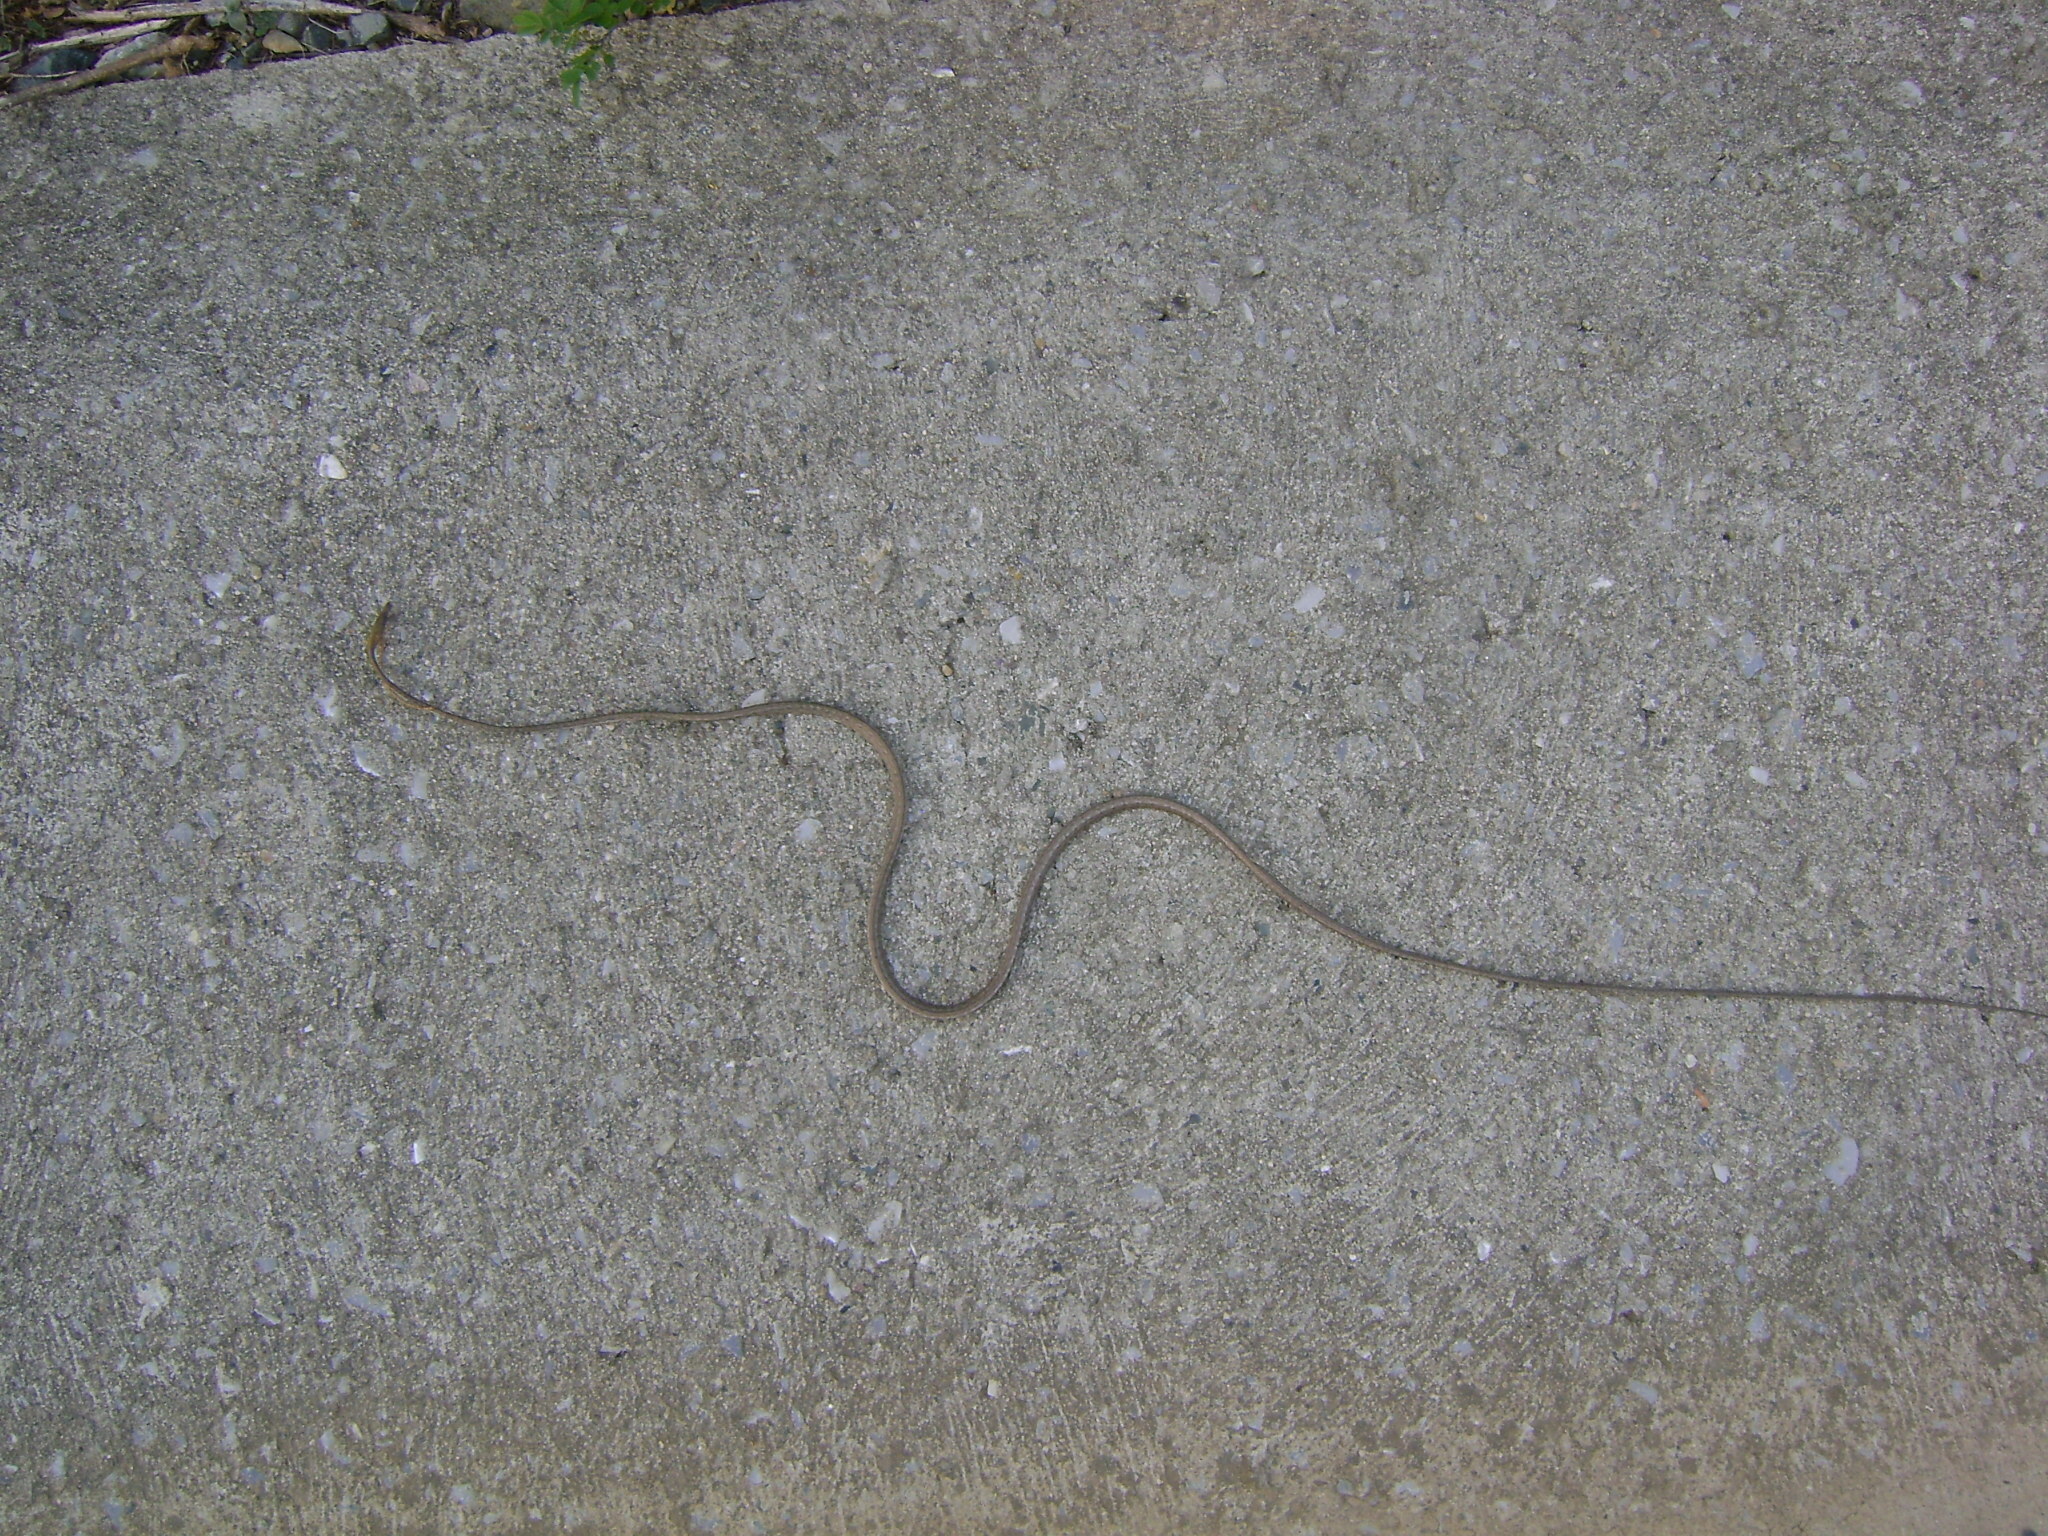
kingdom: Animalia
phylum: Chordata
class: Squamata
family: Colubridae
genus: Oxybelis
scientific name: Oxybelis microphthalmus
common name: Thrornscrub vine snake
